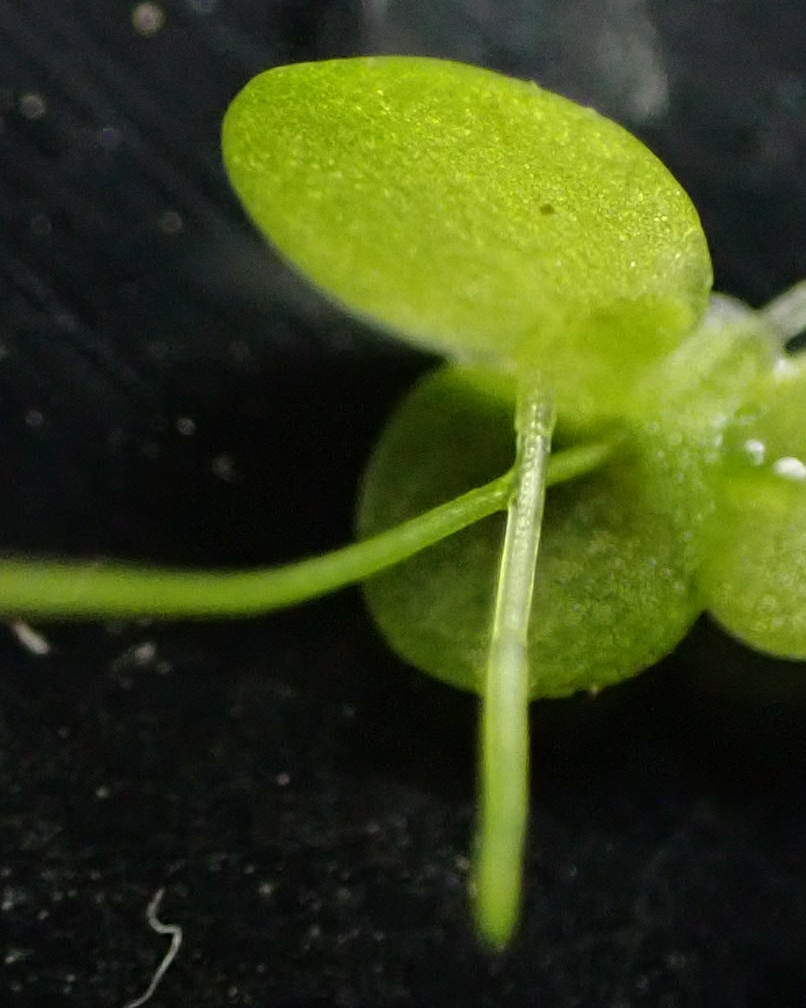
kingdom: Plantae
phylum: Tracheophyta
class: Liliopsida
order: Alismatales
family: Araceae
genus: Lemna
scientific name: Lemna turionifera
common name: Perennial duckweed
